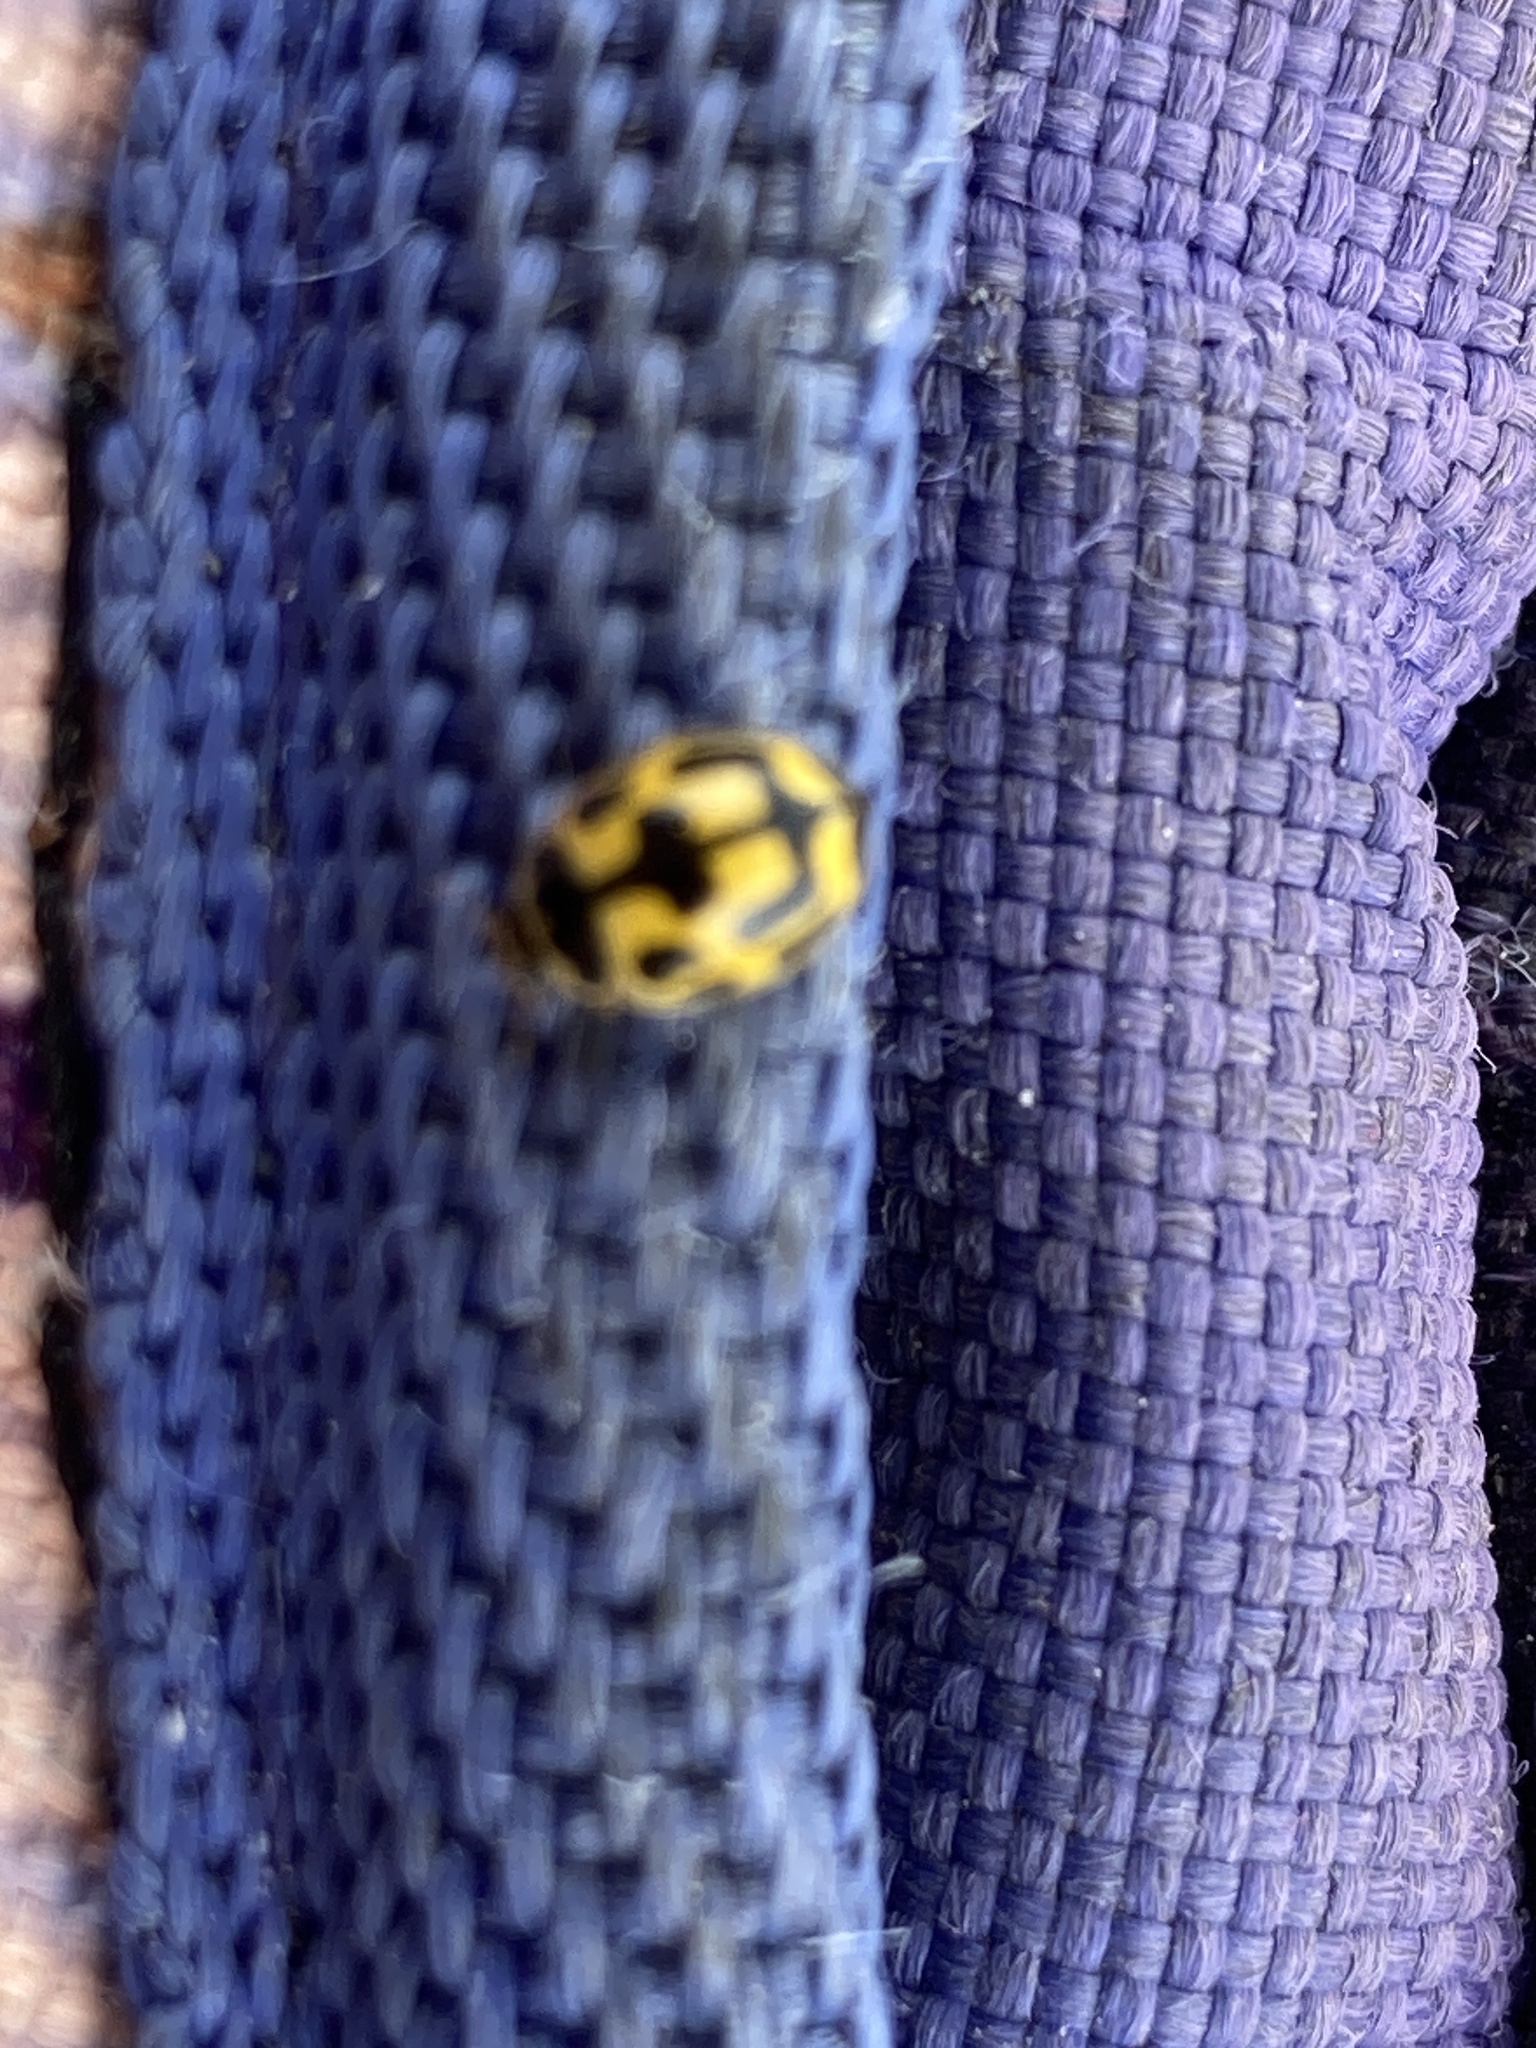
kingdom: Animalia
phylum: Arthropoda
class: Insecta
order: Coleoptera
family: Coccinellidae
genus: Propylaea
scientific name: Propylaea quatuordecimpunctata
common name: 14-spotted ladybird beetle
